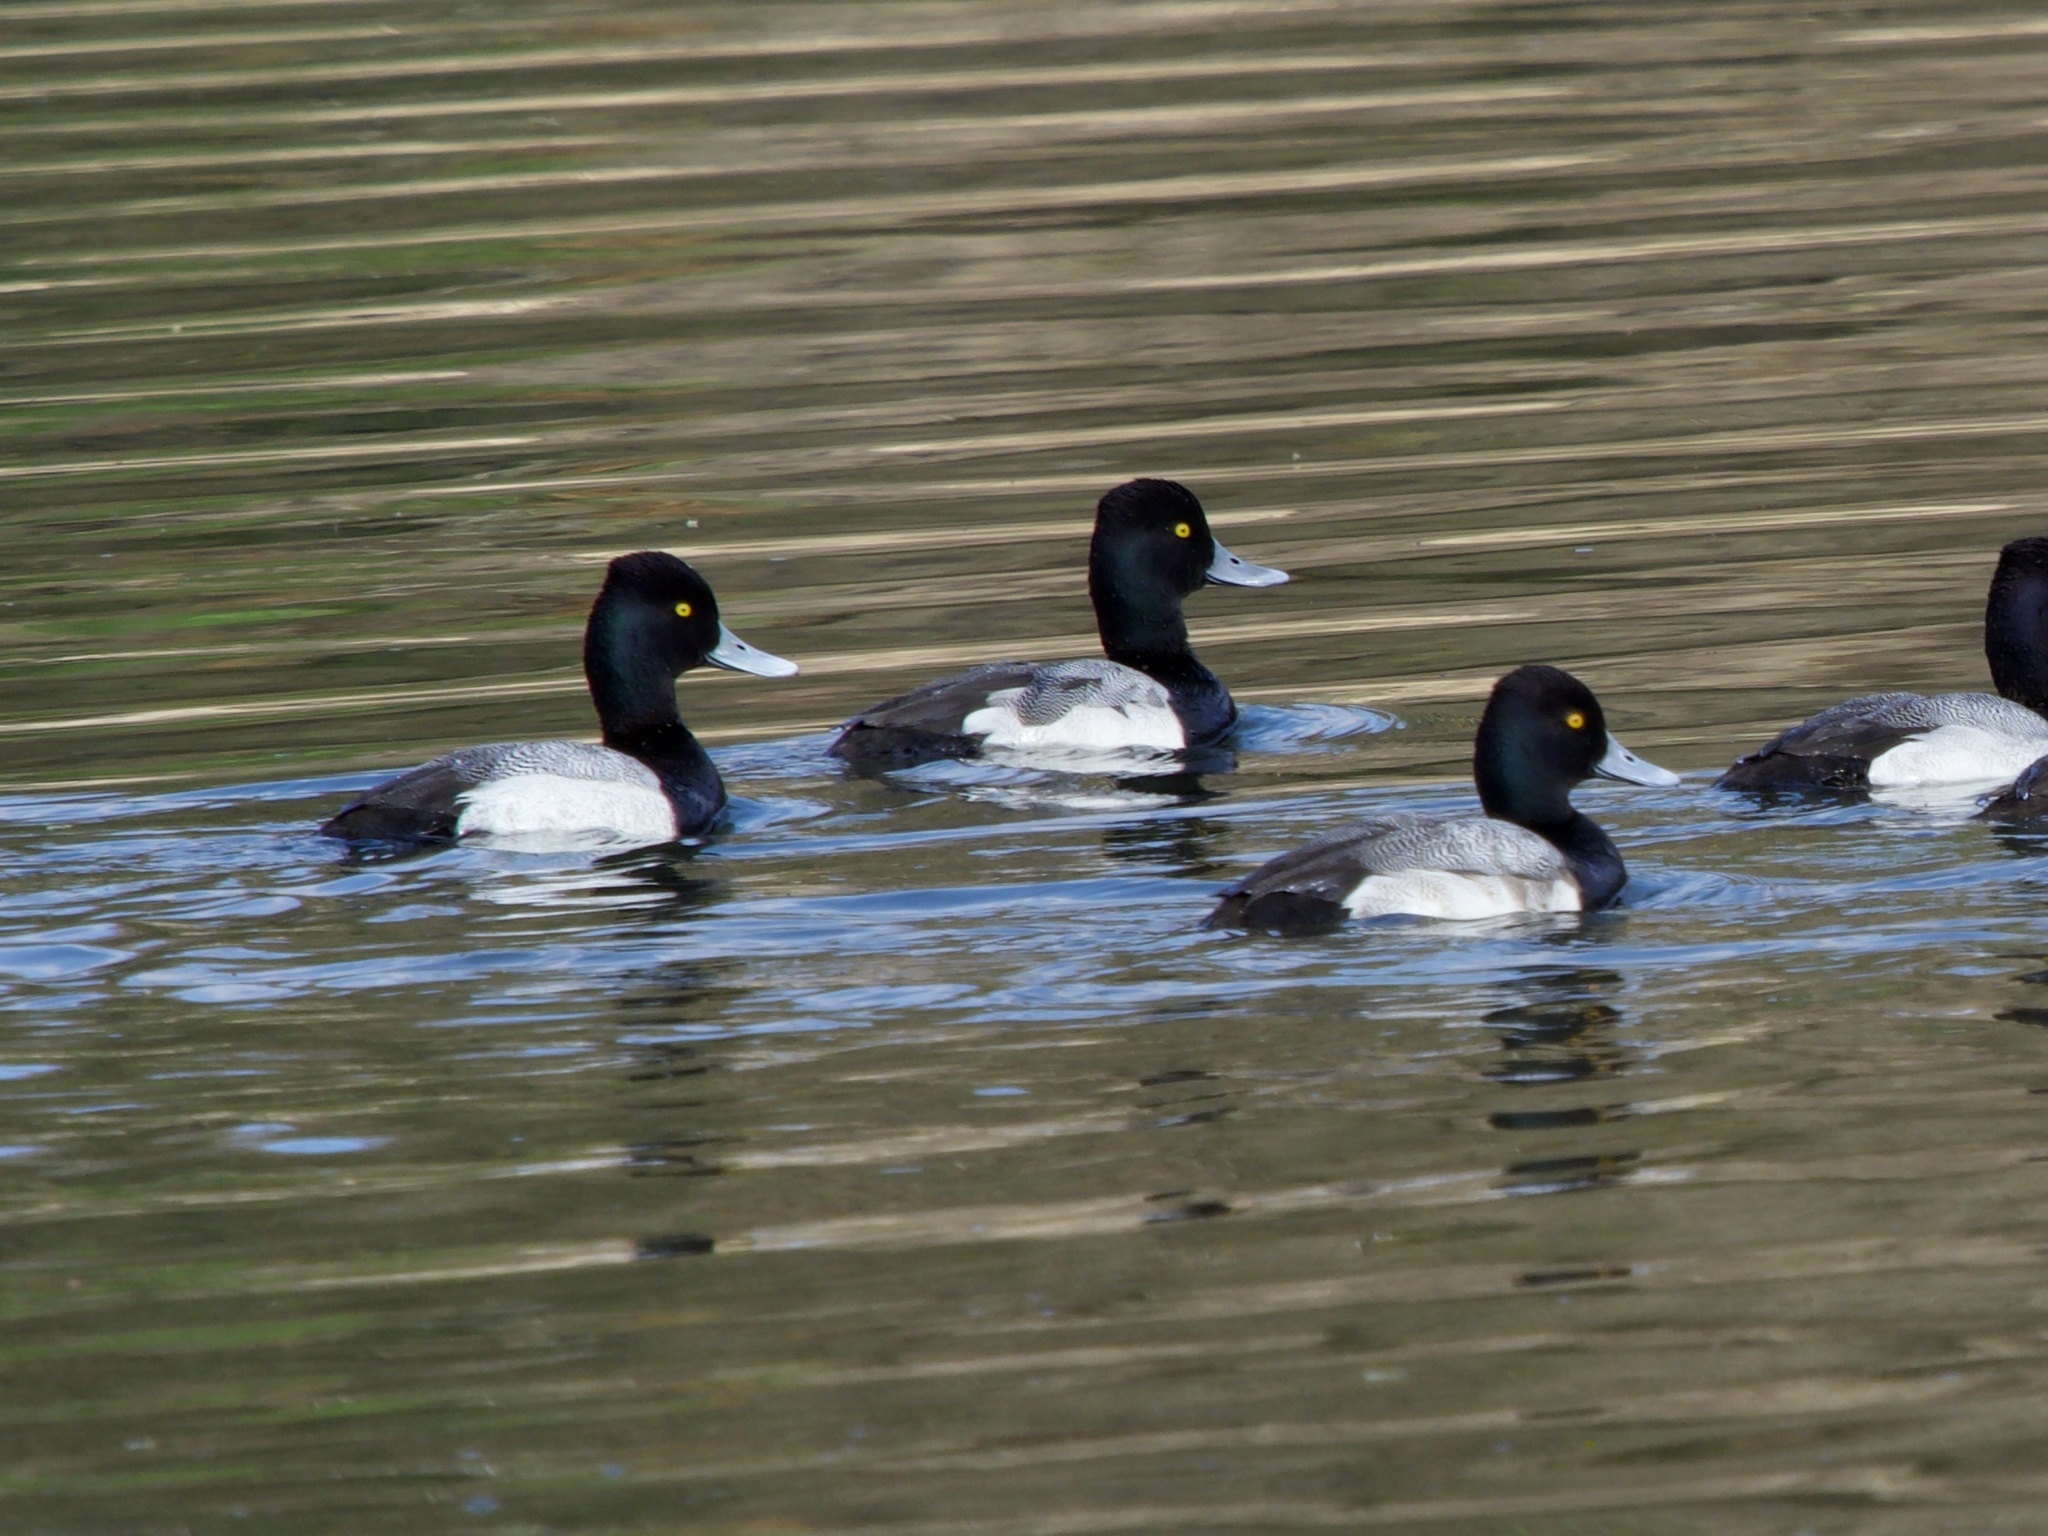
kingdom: Animalia
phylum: Chordata
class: Aves
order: Anseriformes
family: Anatidae
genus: Aythya
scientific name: Aythya affinis
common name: Lesser scaup
